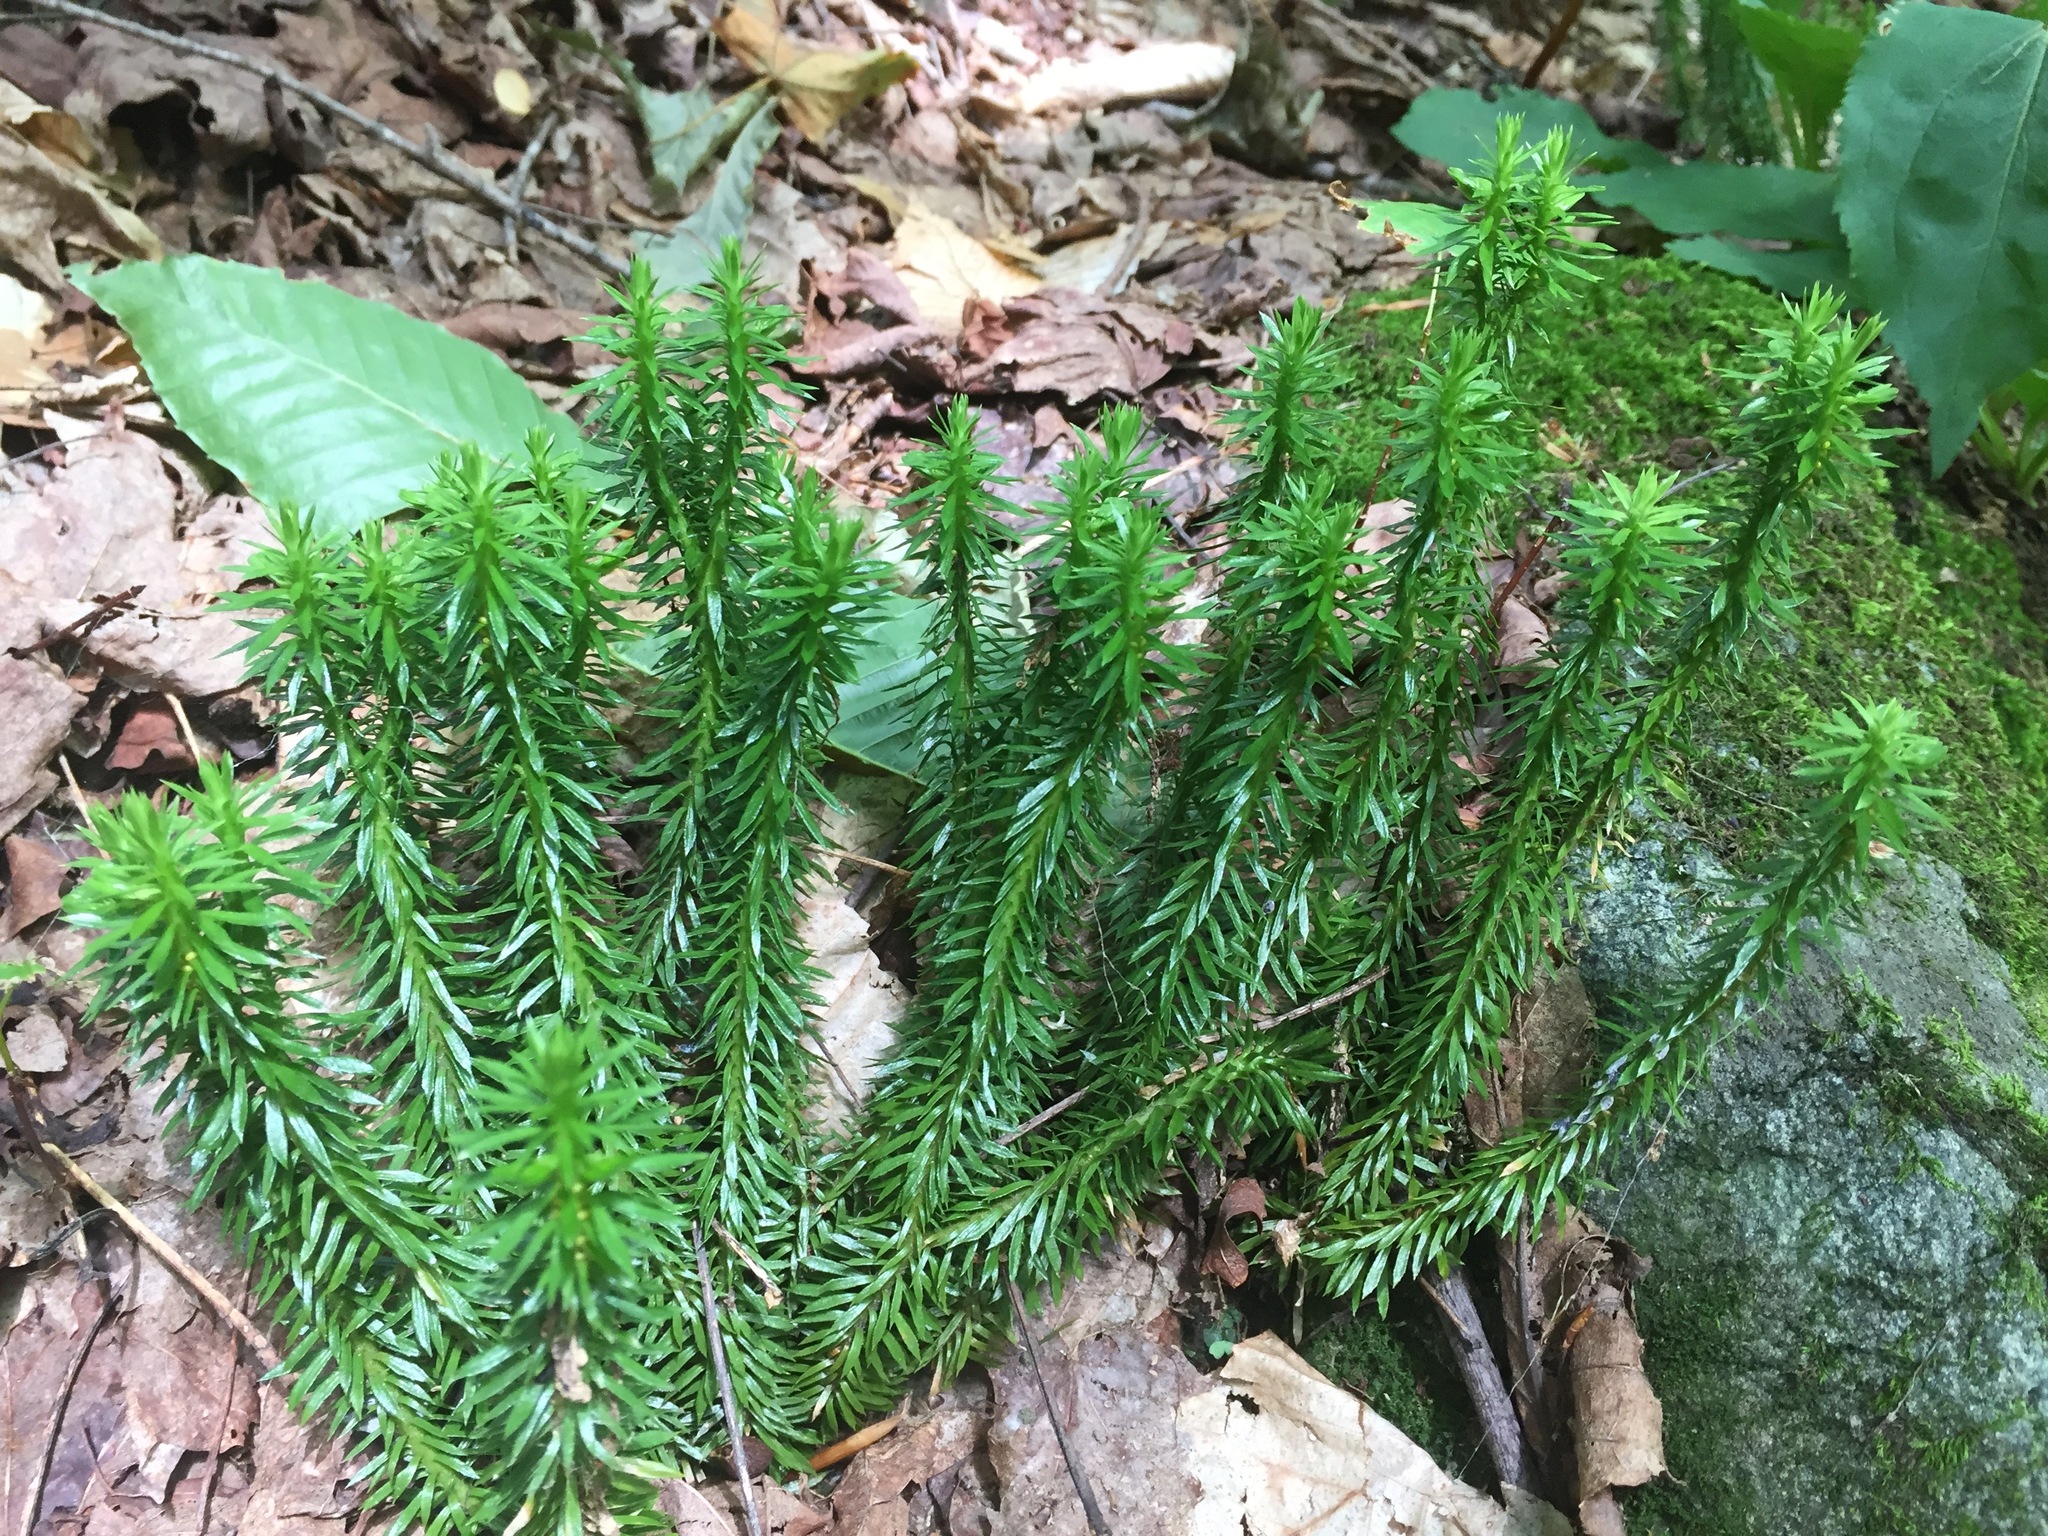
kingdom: Plantae
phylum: Tracheophyta
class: Lycopodiopsida
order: Lycopodiales
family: Lycopodiaceae
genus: Huperzia
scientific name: Huperzia lucidula
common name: Shining clubmoss
